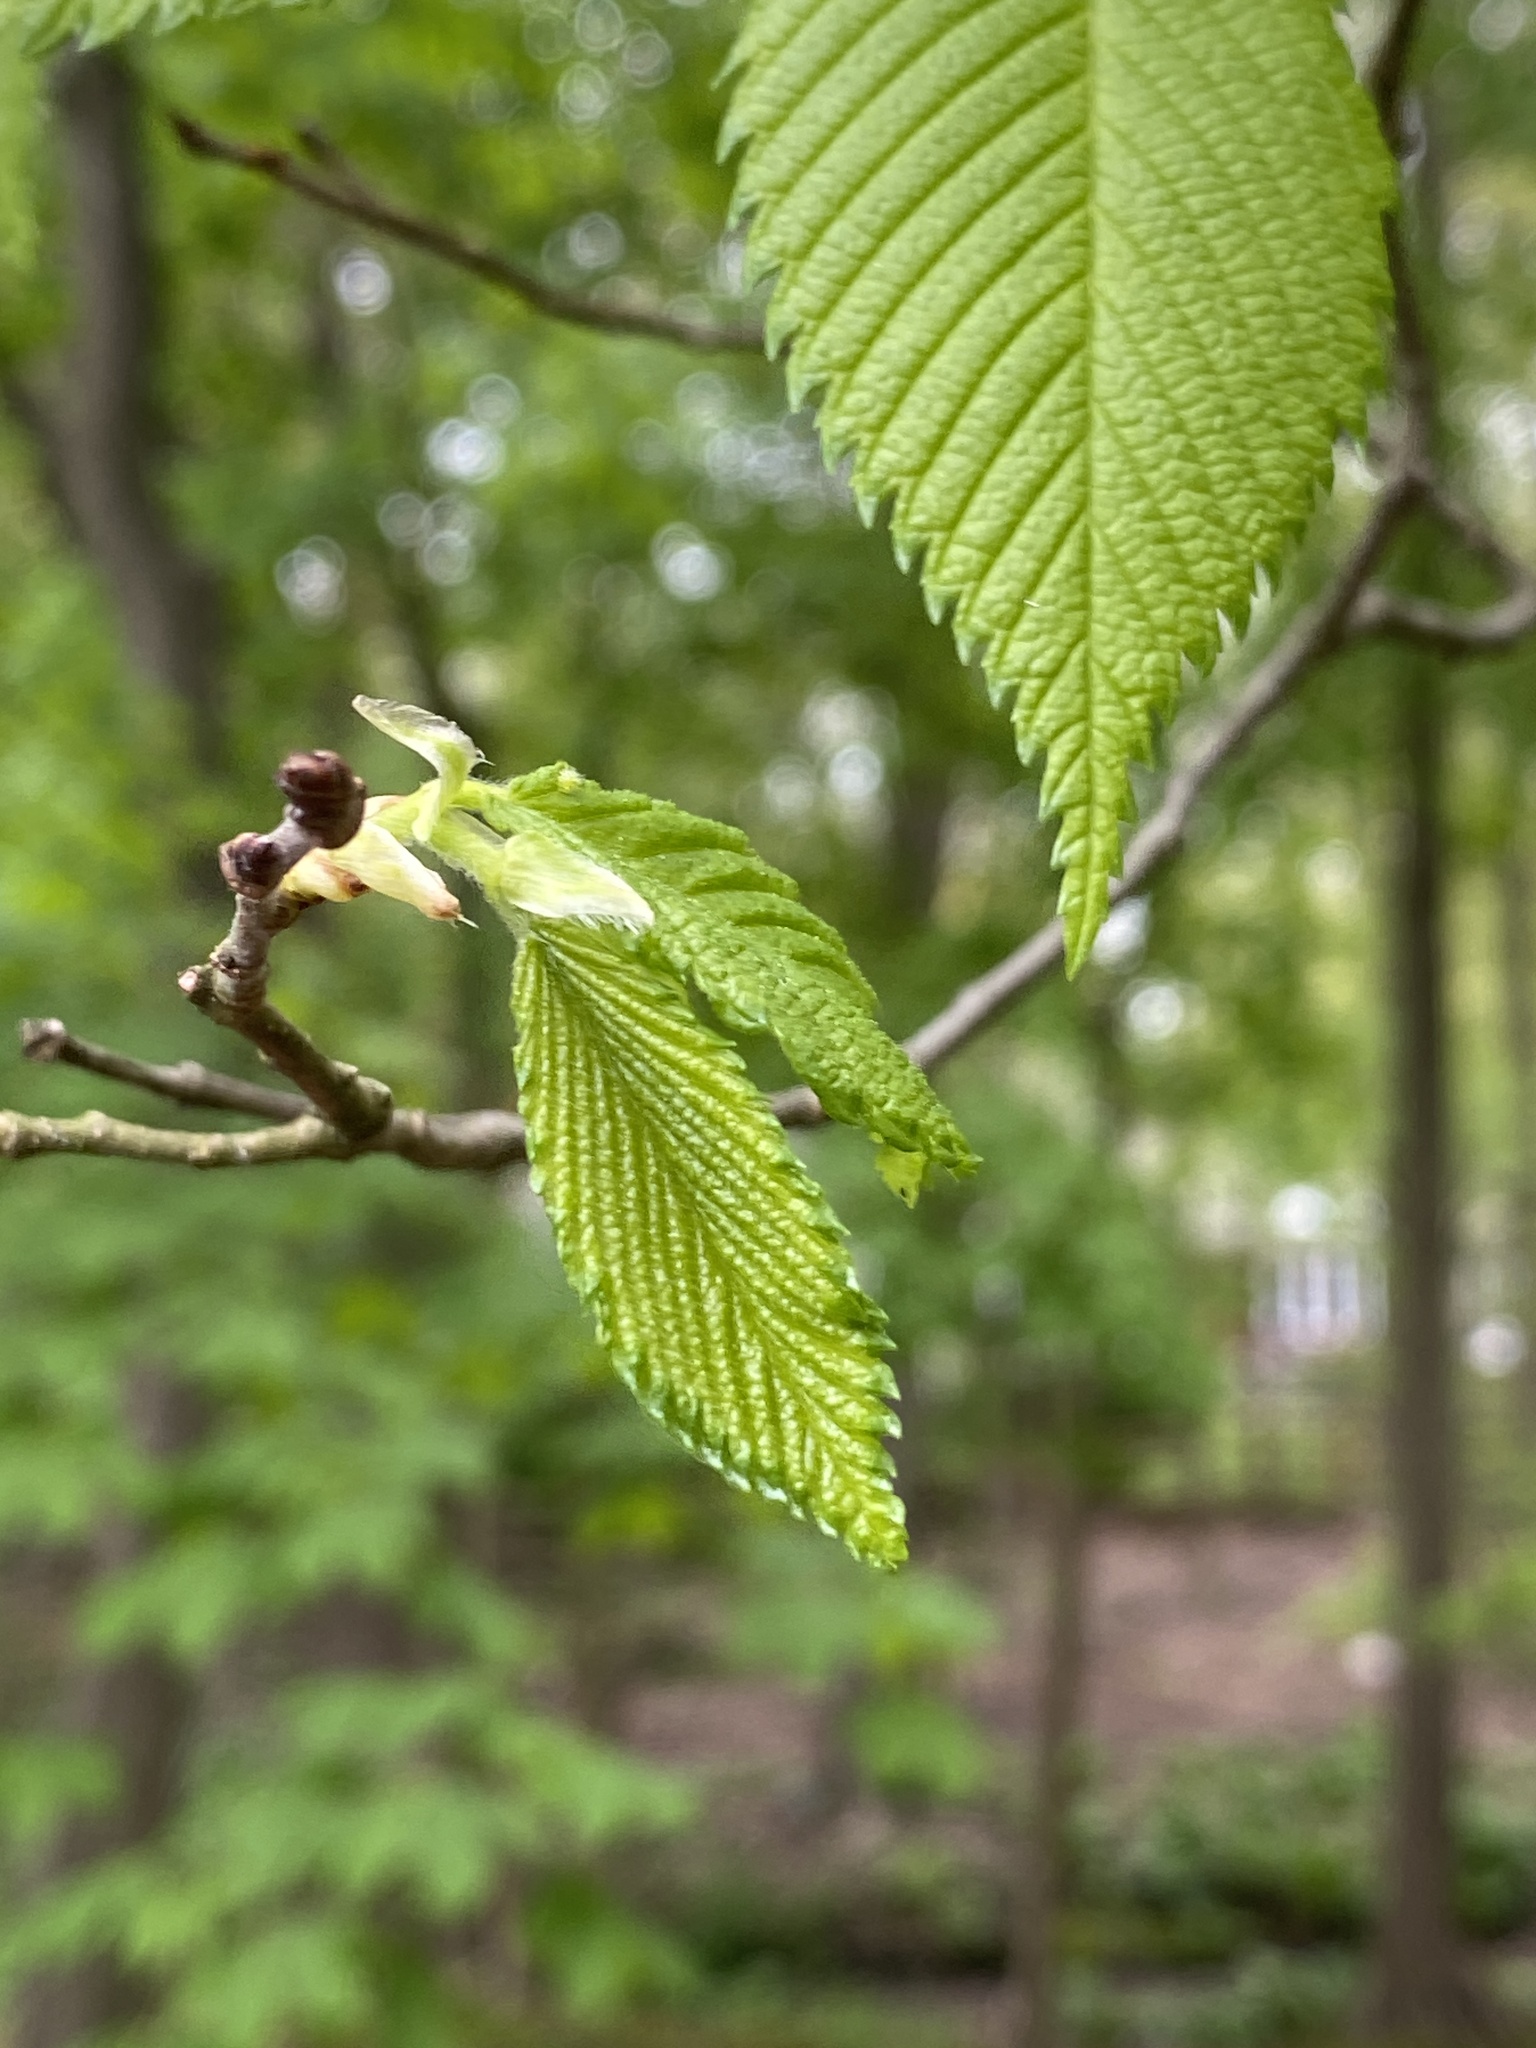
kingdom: Plantae
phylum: Tracheophyta
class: Magnoliopsida
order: Rosales
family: Ulmaceae
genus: Ulmus
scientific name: Ulmus americana
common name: American elm
